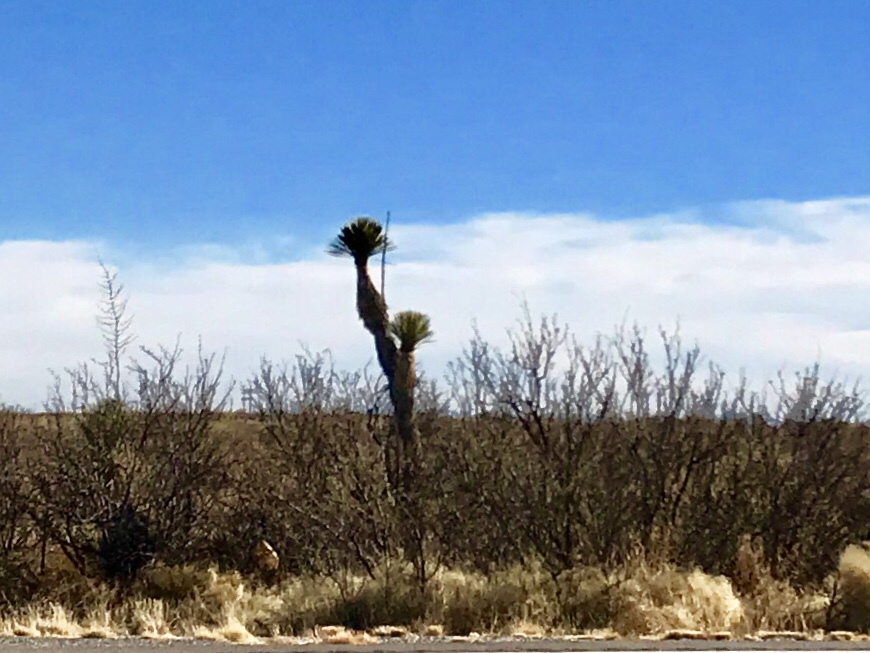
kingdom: Plantae
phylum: Tracheophyta
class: Liliopsida
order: Asparagales
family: Asparagaceae
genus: Yucca
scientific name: Yucca elata
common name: Palmella
